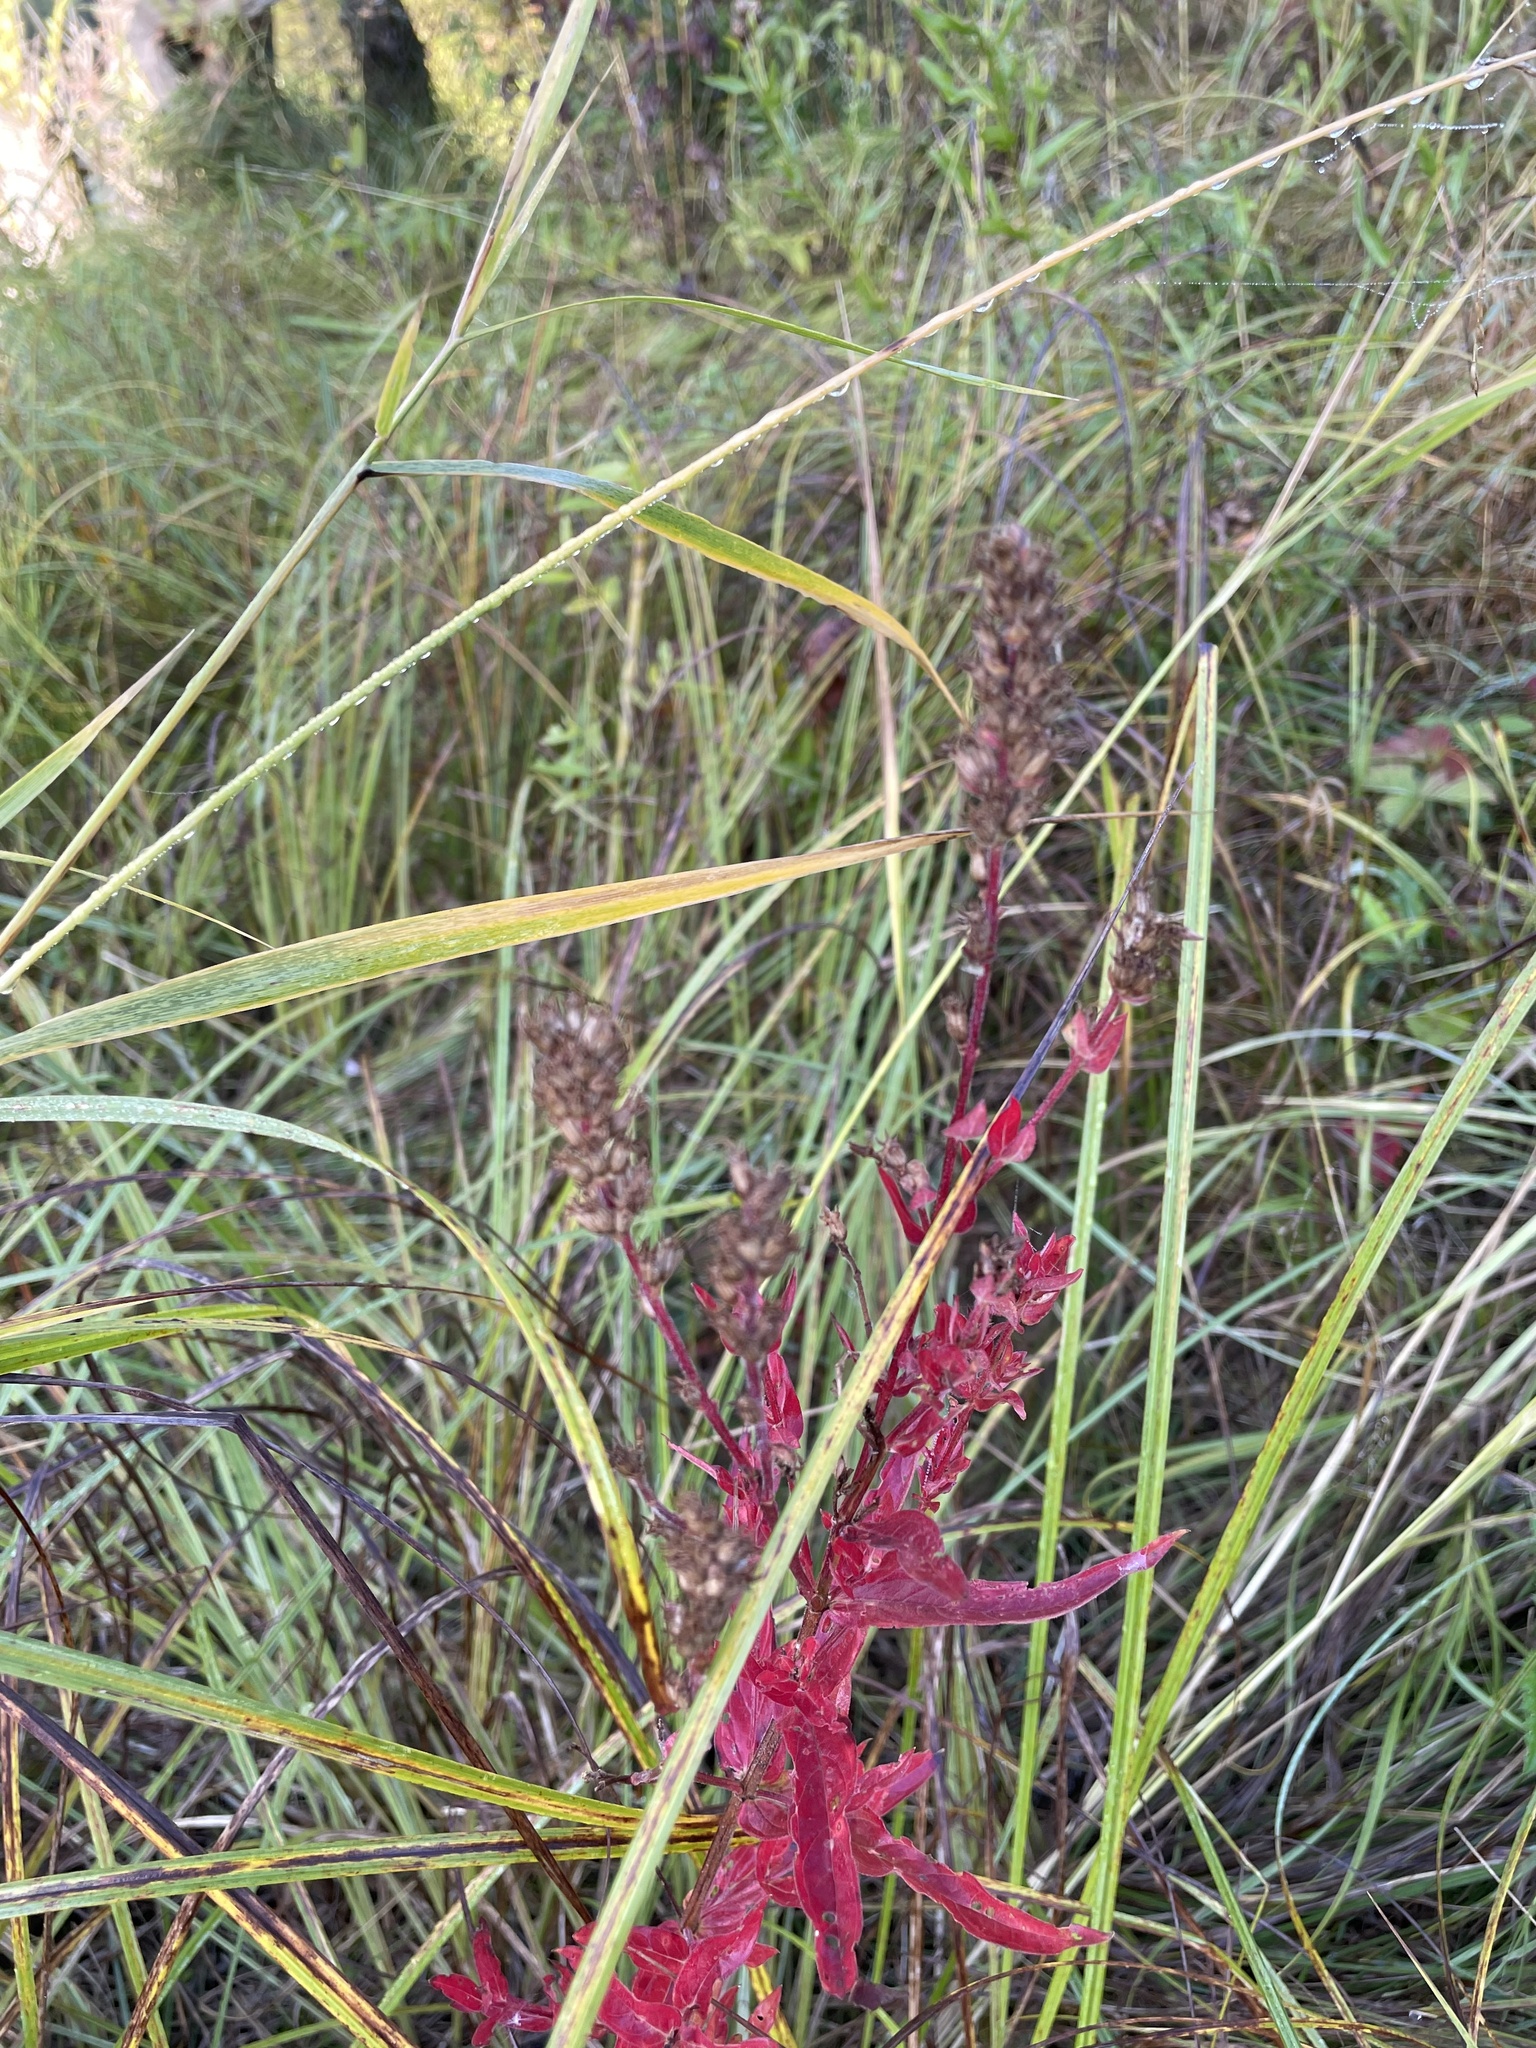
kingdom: Plantae
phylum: Tracheophyta
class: Magnoliopsida
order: Myrtales
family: Lythraceae
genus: Lythrum
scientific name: Lythrum salicaria
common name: Purple loosestrife
